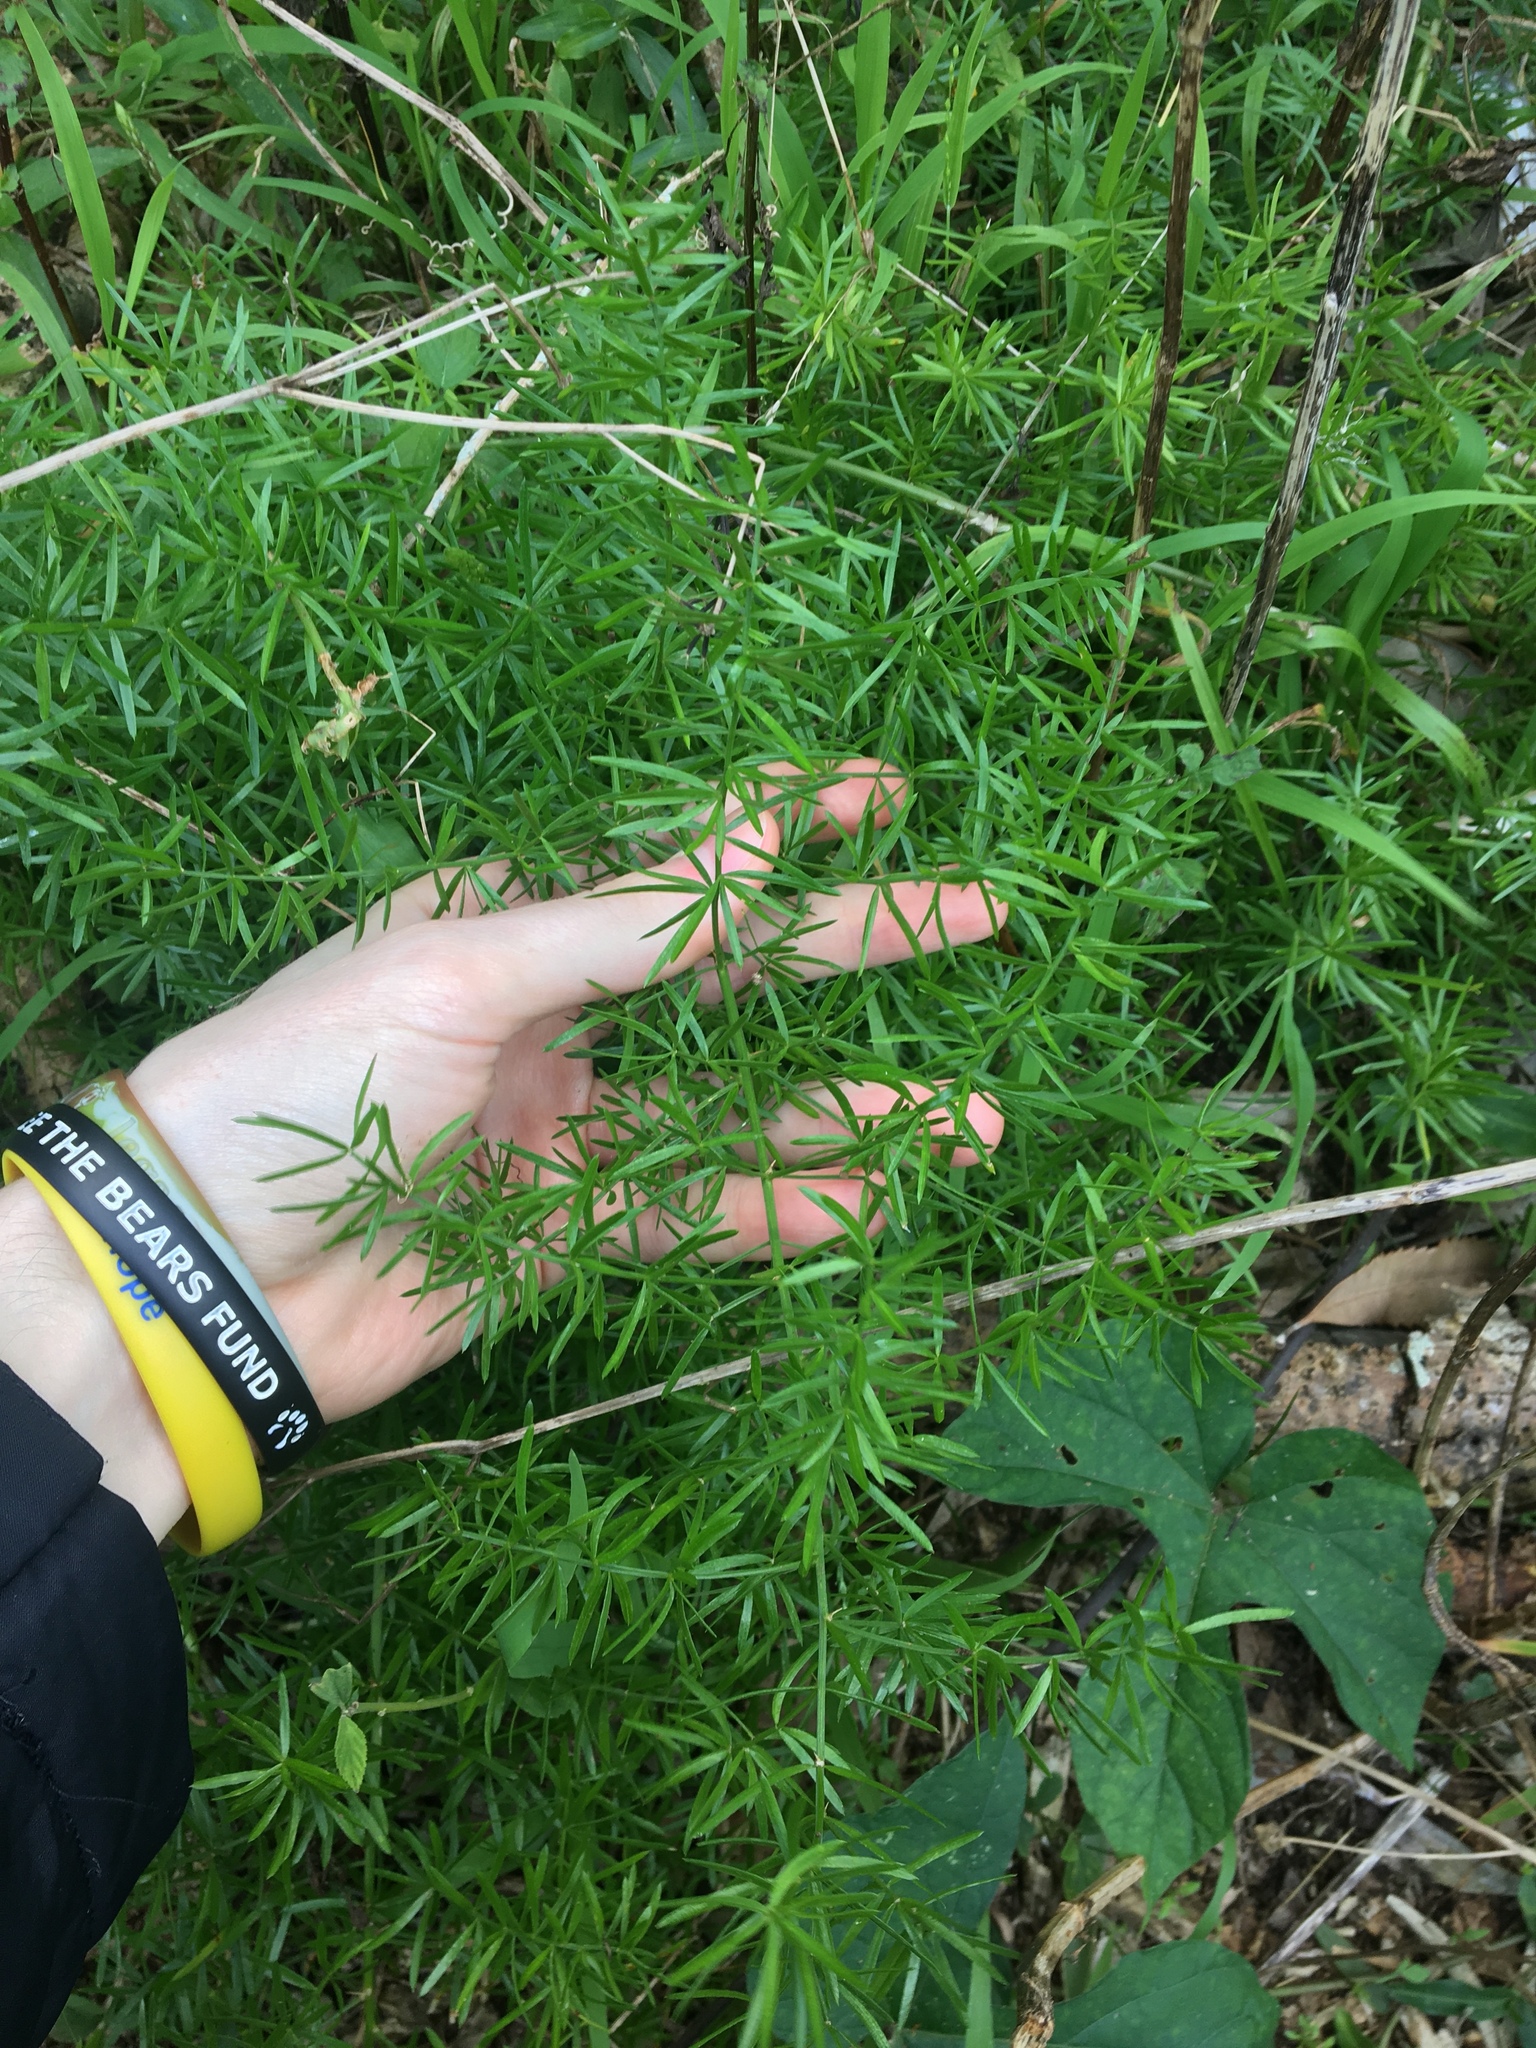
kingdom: Plantae
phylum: Tracheophyta
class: Liliopsida
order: Asparagales
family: Asparagaceae
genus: Asparagus
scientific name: Asparagus aethiopicus
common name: Sprenger's asparagus fern
